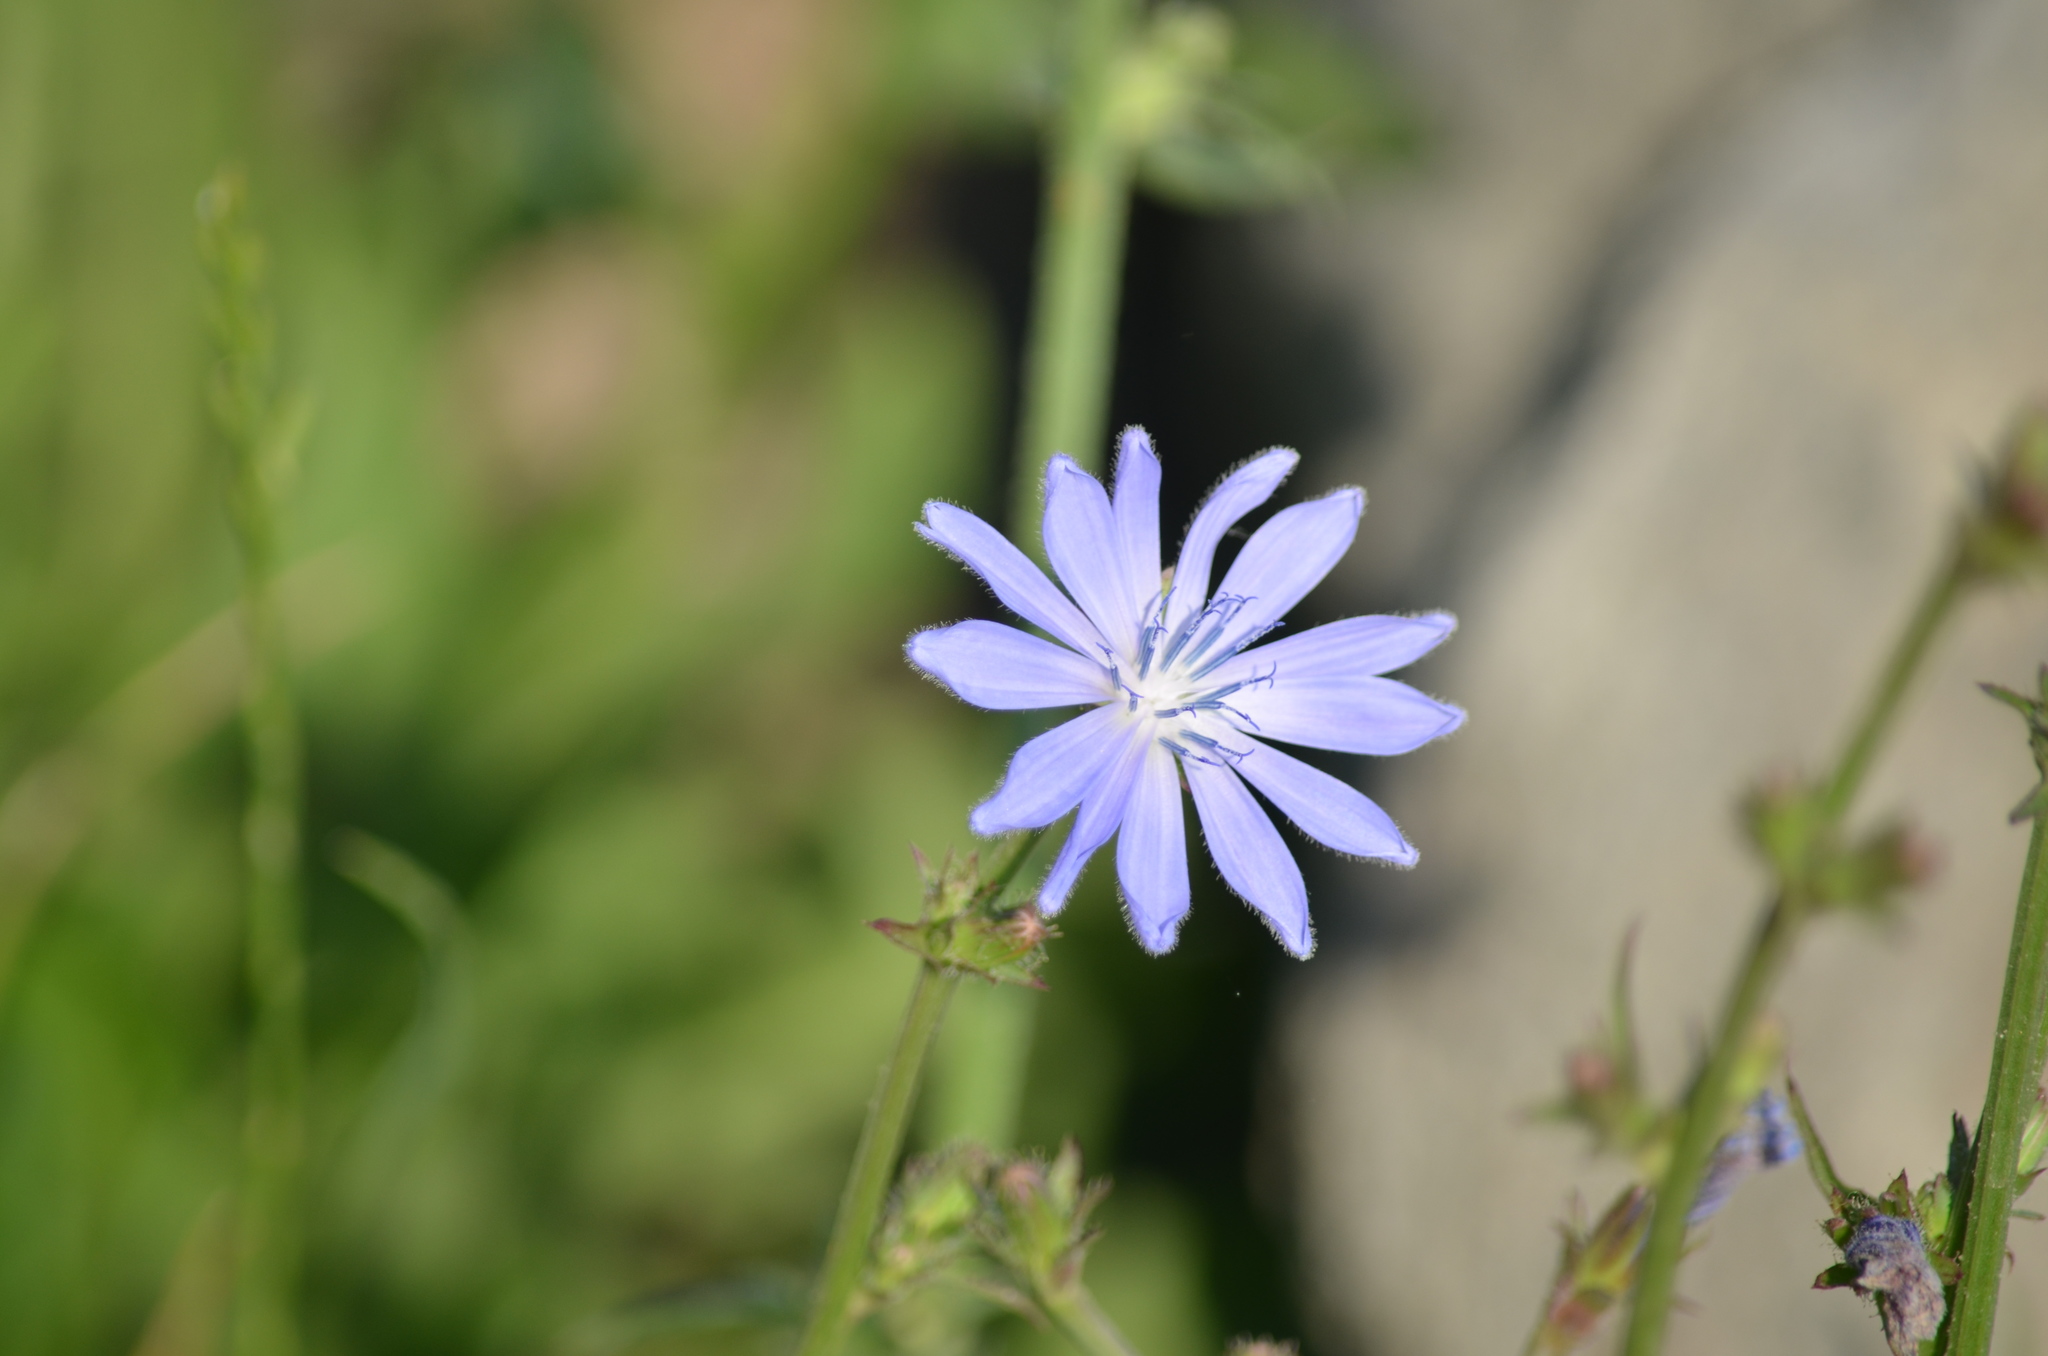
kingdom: Plantae
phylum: Tracheophyta
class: Magnoliopsida
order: Asterales
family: Asteraceae
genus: Cichorium
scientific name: Cichorium intybus
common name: Chicory
